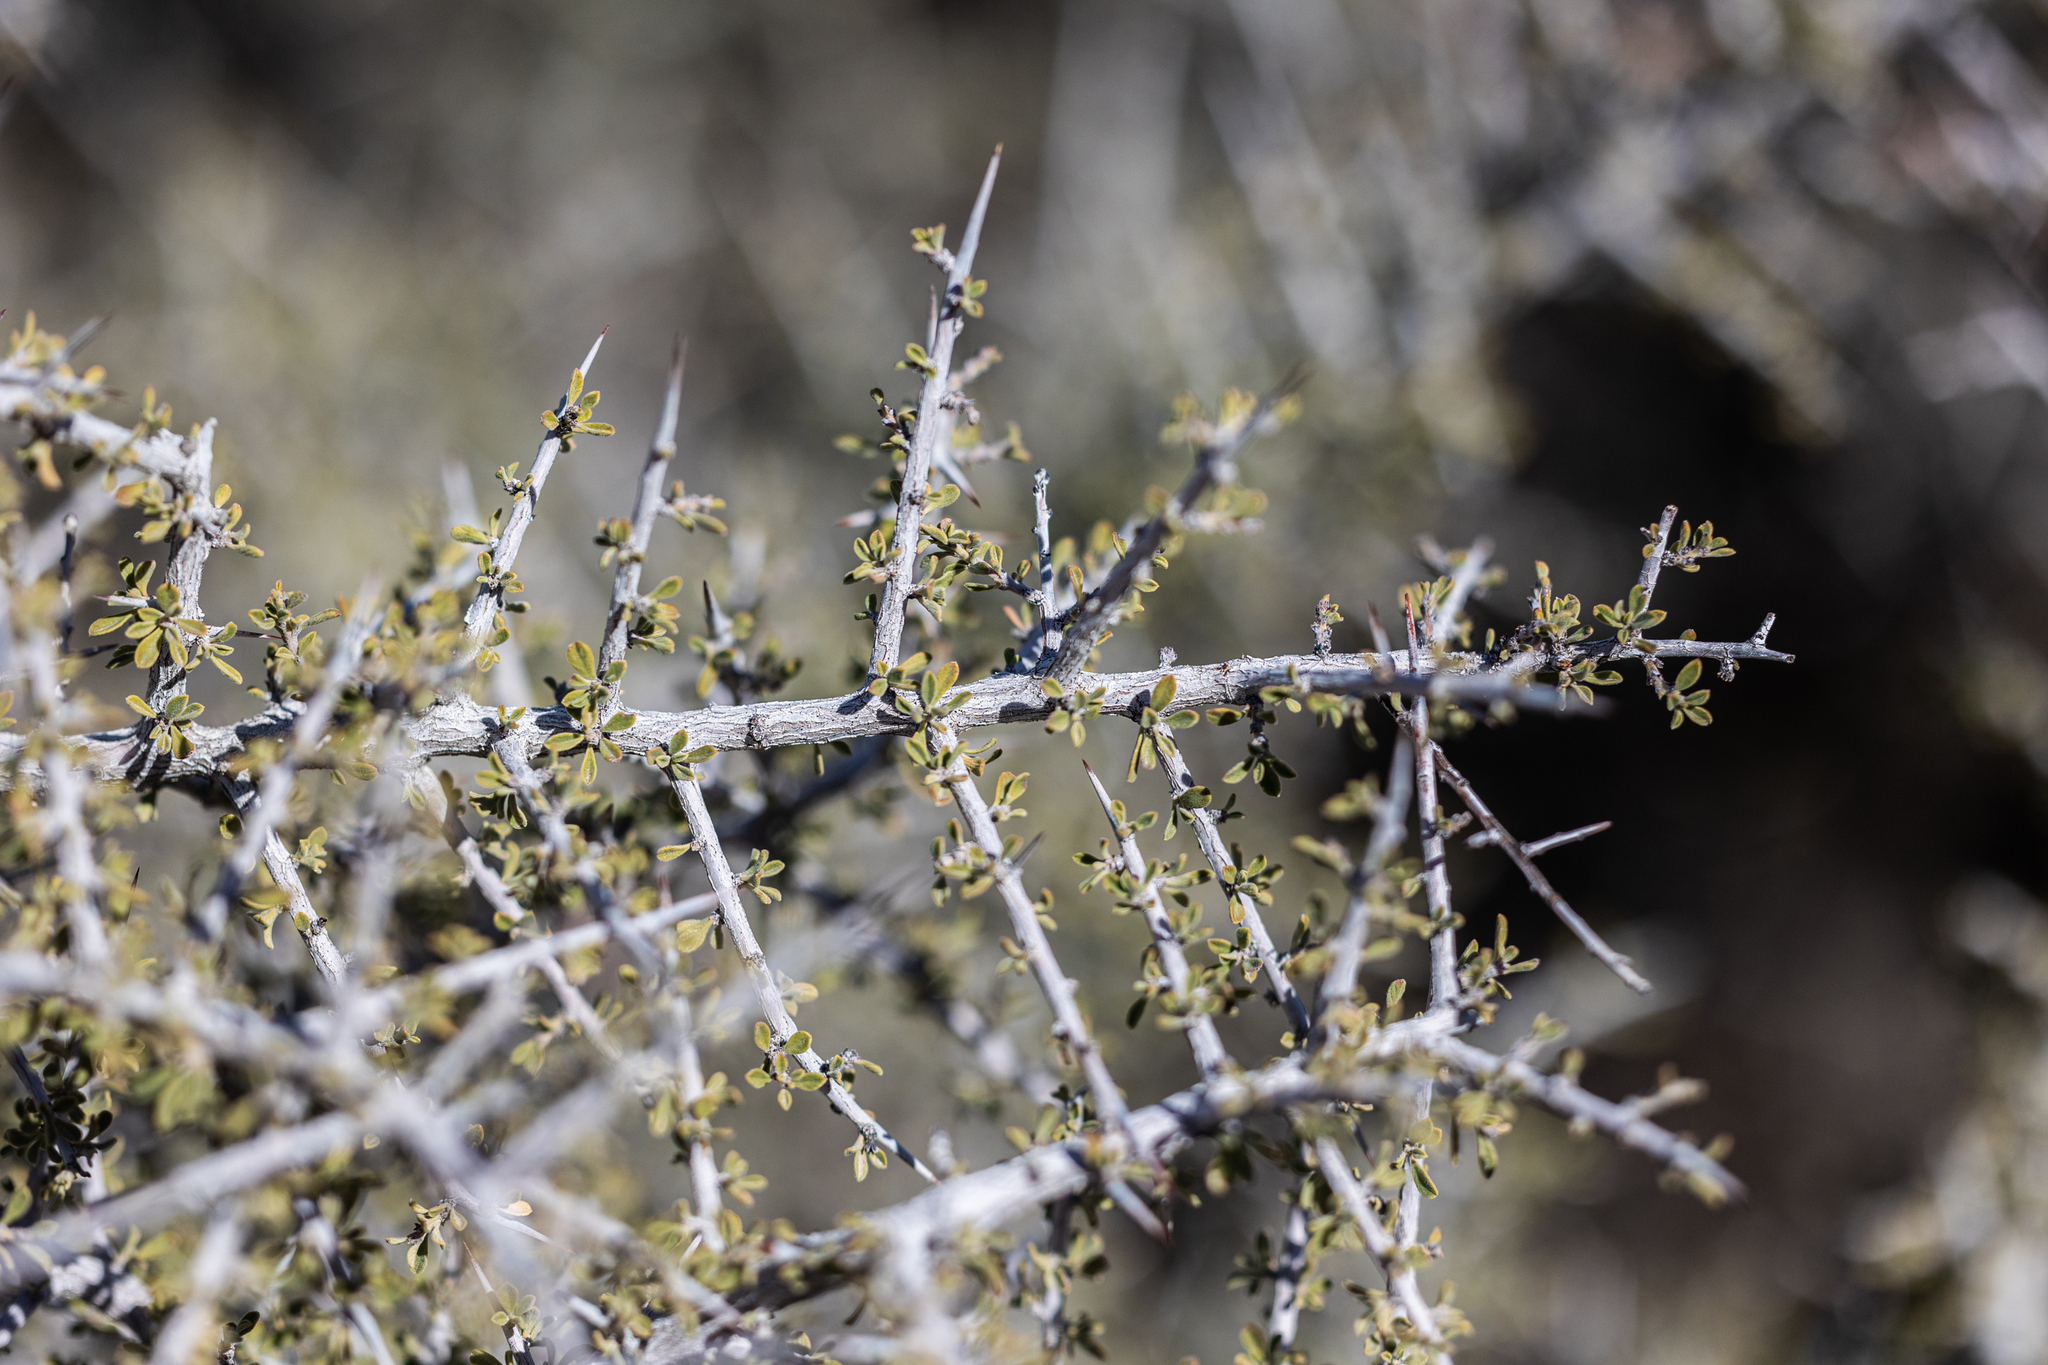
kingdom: Plantae
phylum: Tracheophyta
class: Magnoliopsida
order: Rosales
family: Rhamnaceae
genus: Condalia
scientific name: Condalia warnockii
